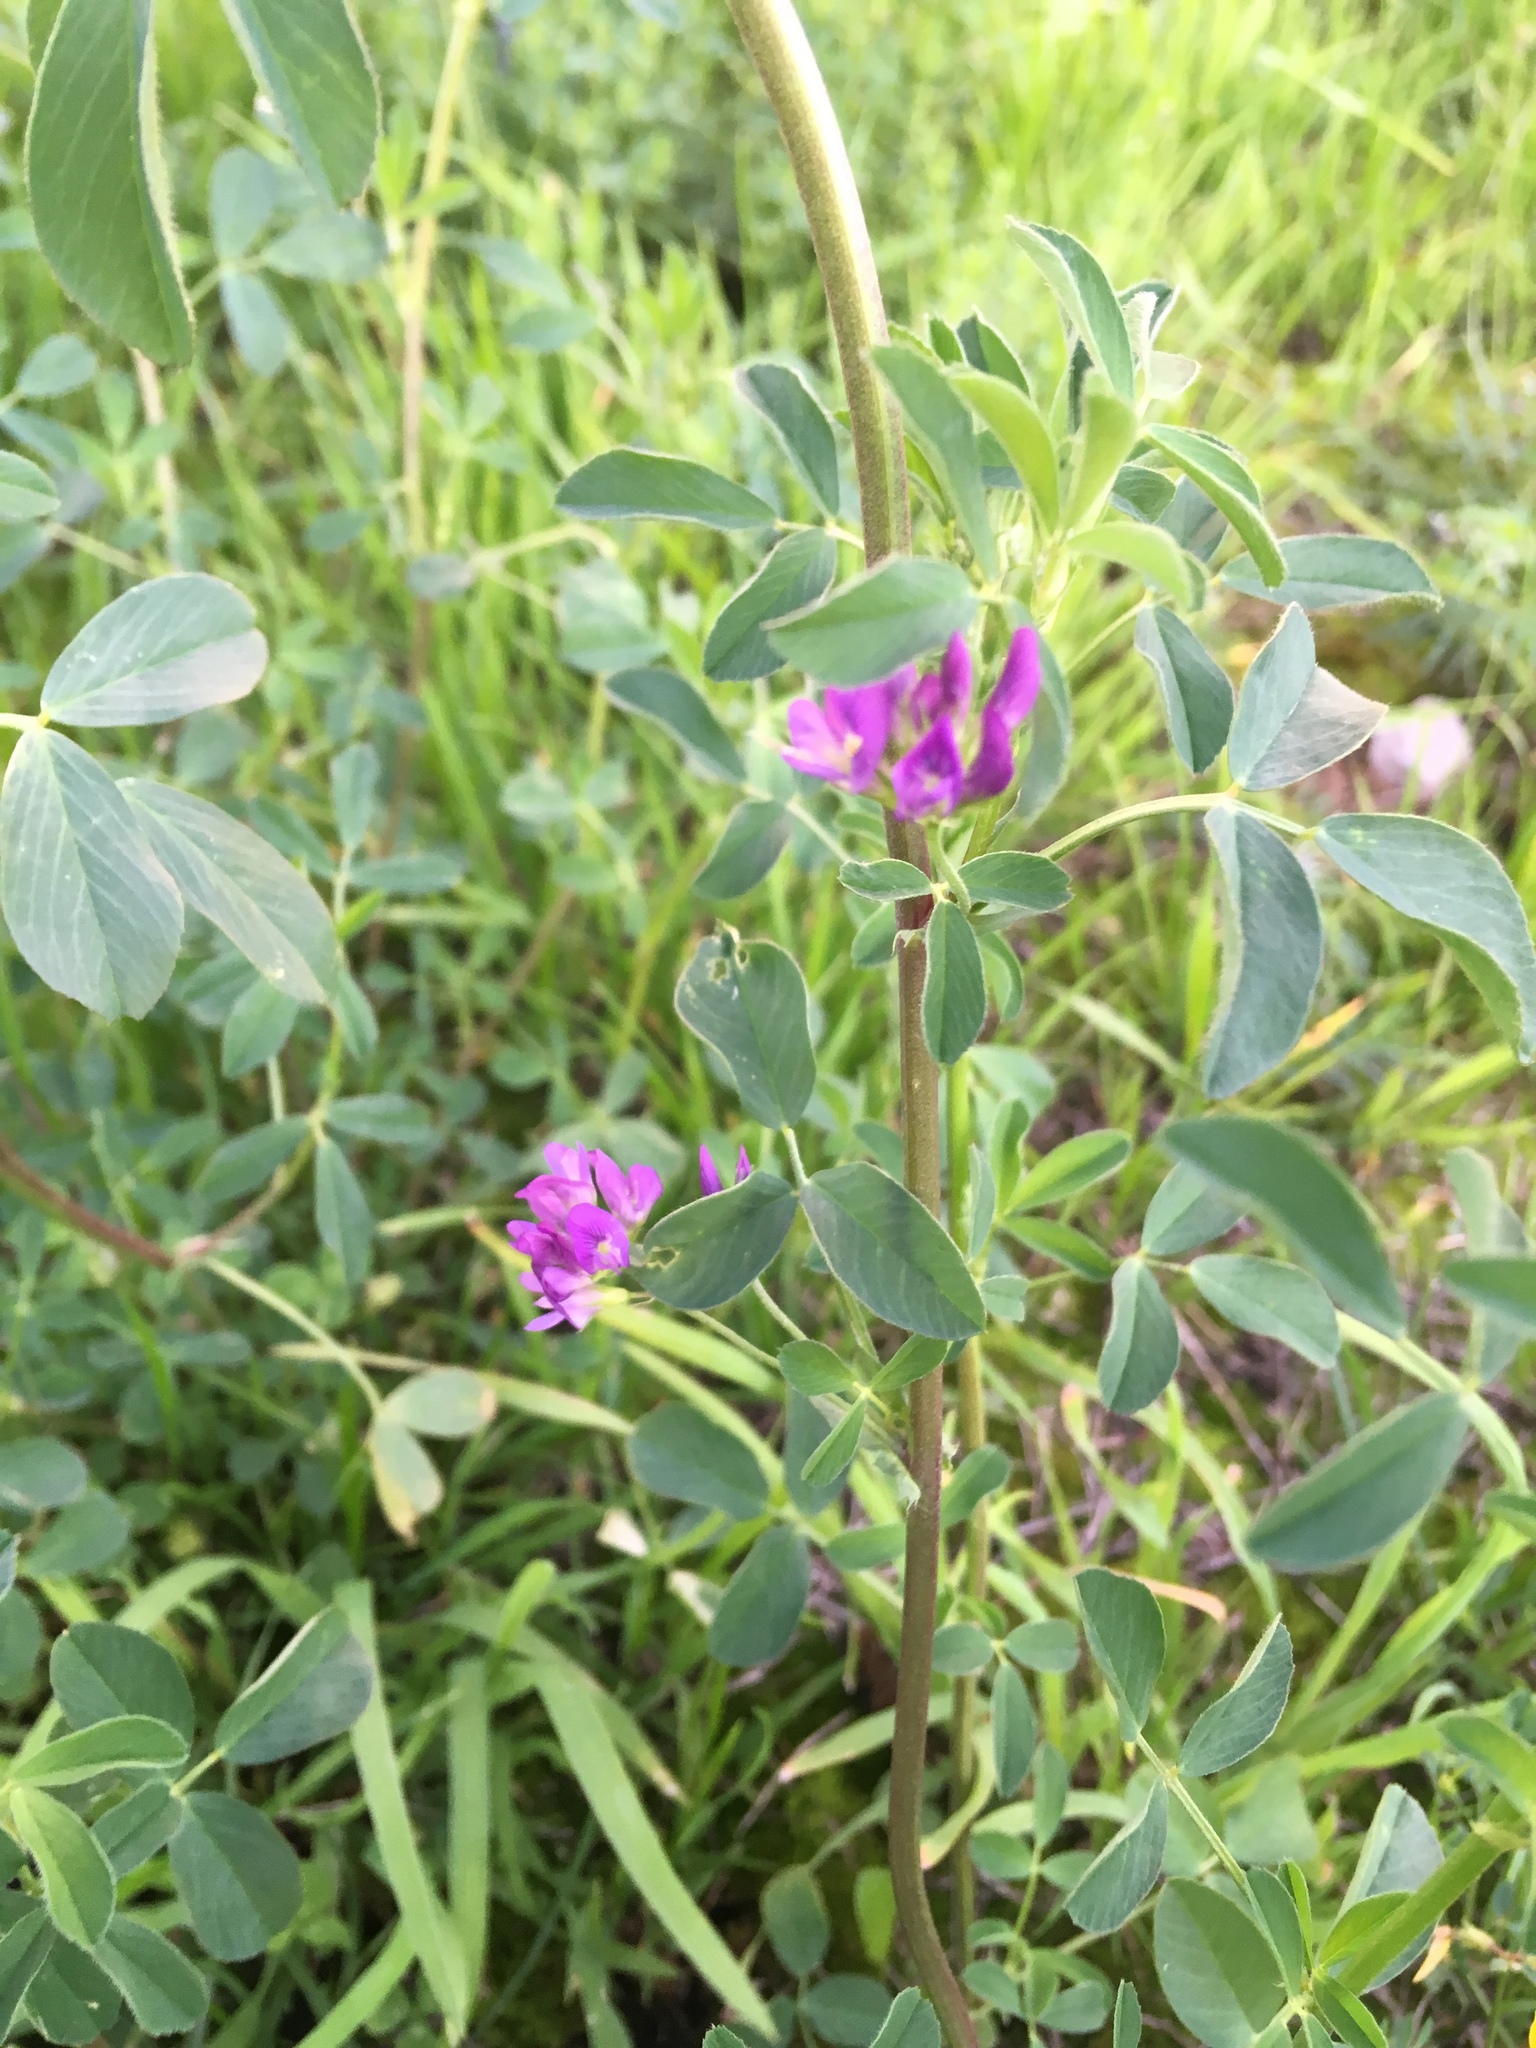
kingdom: Plantae
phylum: Tracheophyta
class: Magnoliopsida
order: Fabales
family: Fabaceae
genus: Medicago
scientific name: Medicago sativa
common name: Alfalfa
